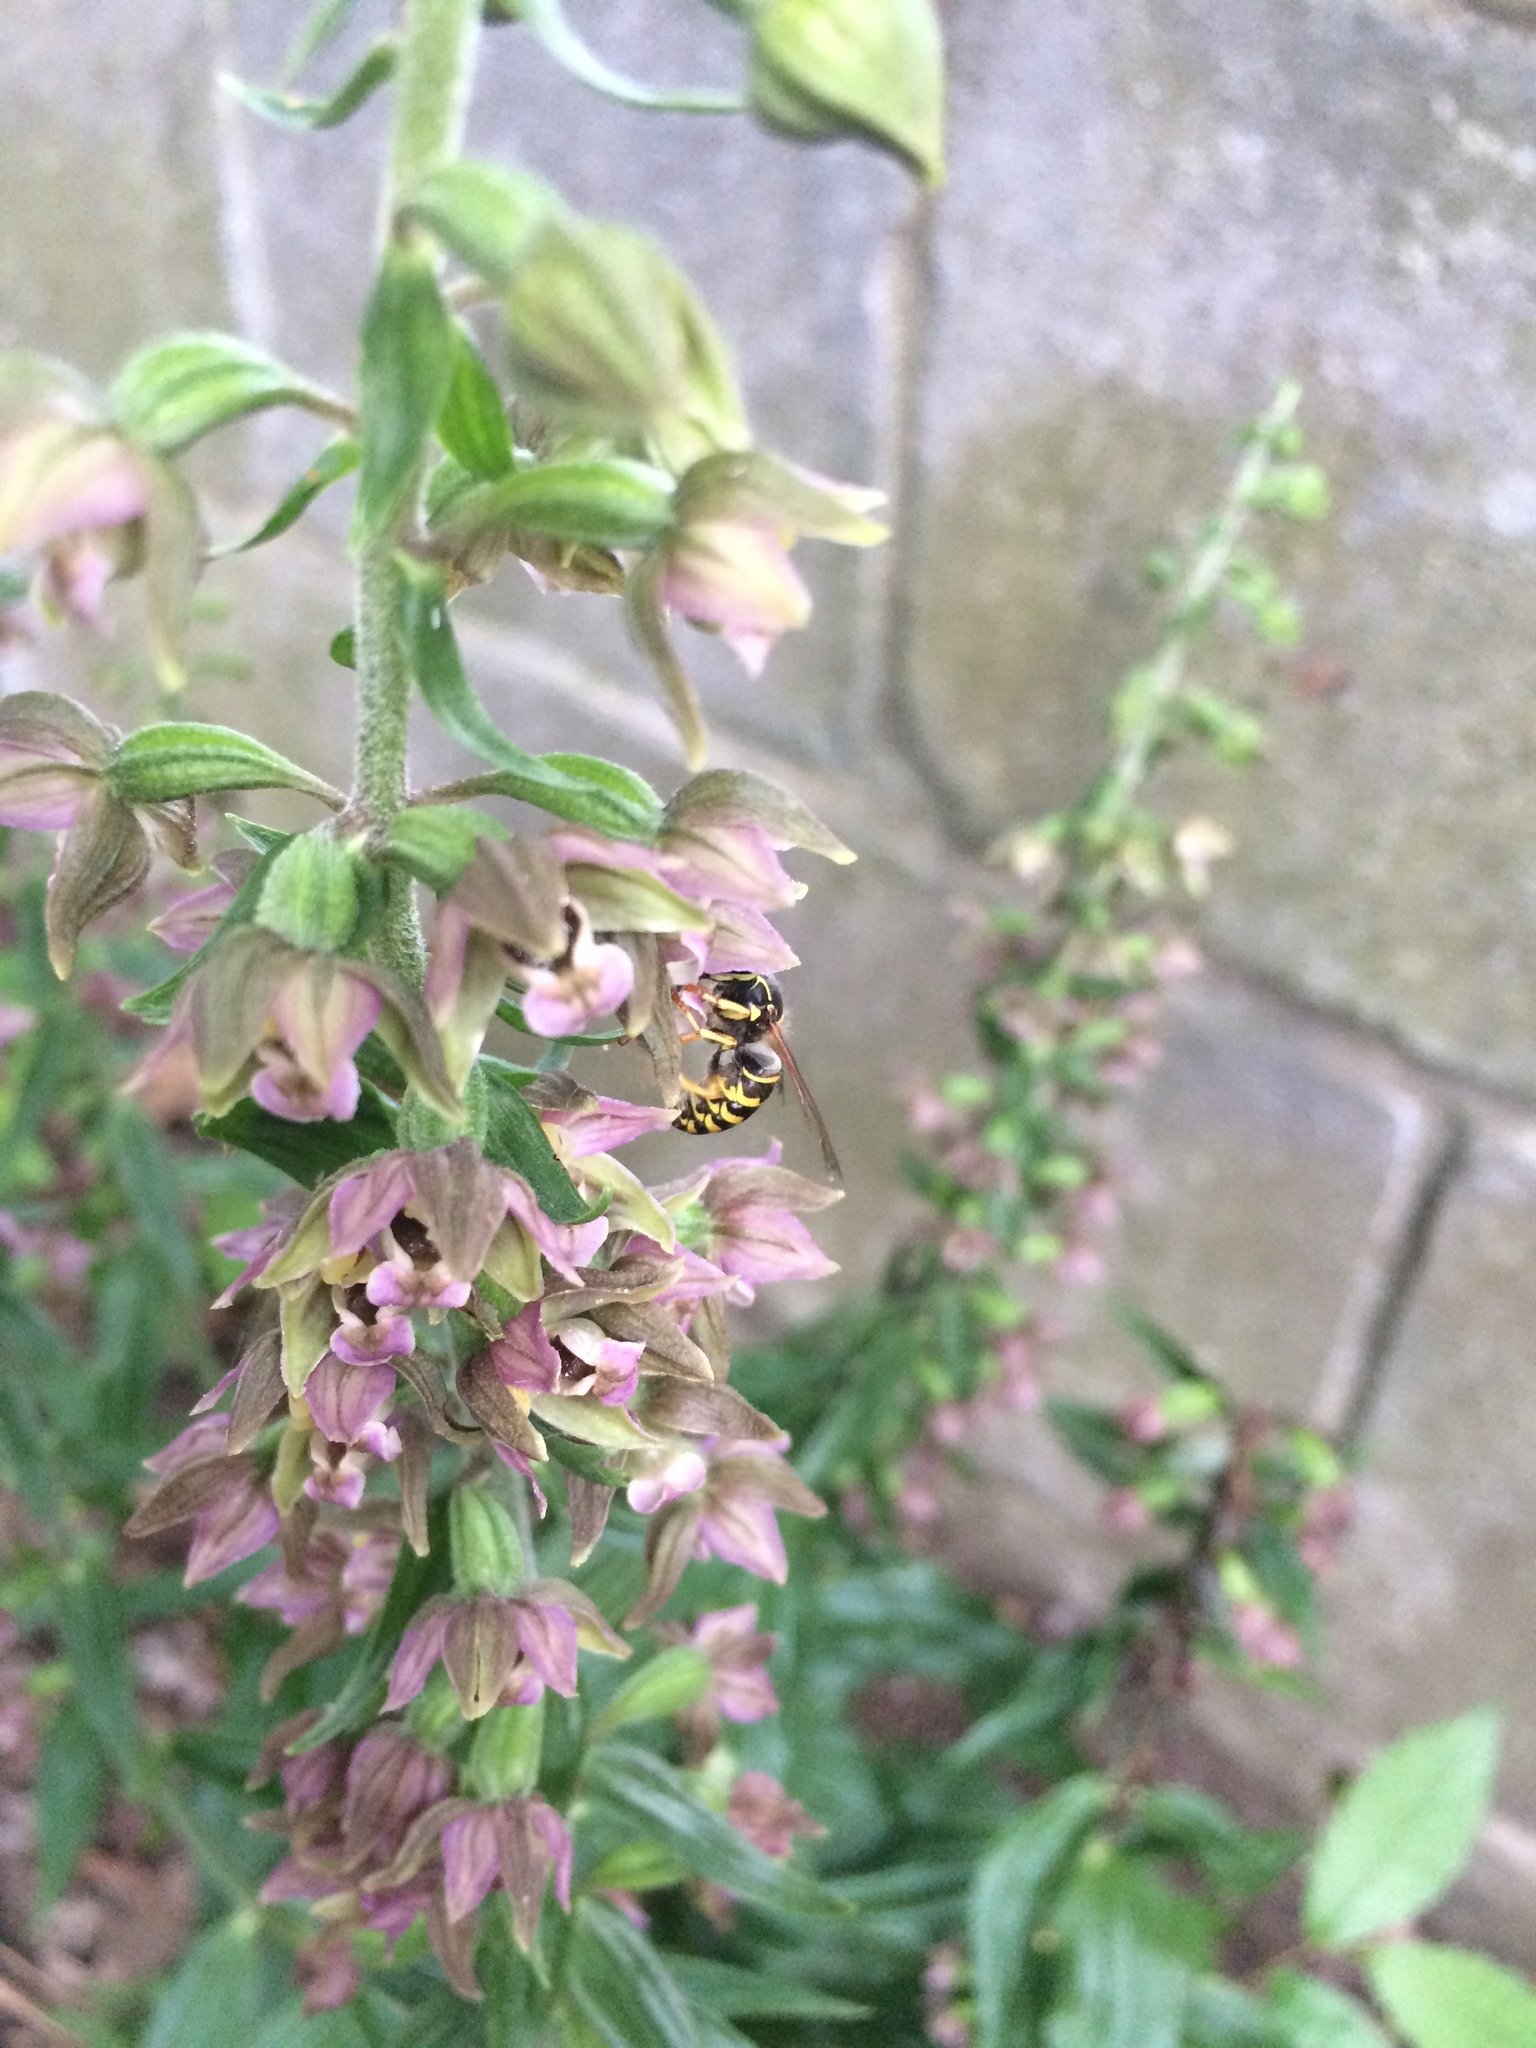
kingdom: Animalia
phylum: Arthropoda
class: Insecta
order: Hymenoptera
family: Vespidae
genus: Dolichovespula
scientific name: Dolichovespula arenaria
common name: Aerial yellowjacket
